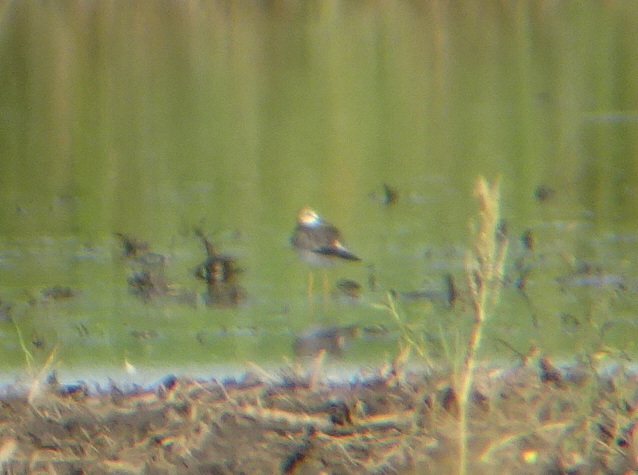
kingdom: Animalia
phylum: Chordata
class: Aves
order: Charadriiformes
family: Scolopacidae
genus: Tringa
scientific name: Tringa flavipes
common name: Lesser yellowlegs
